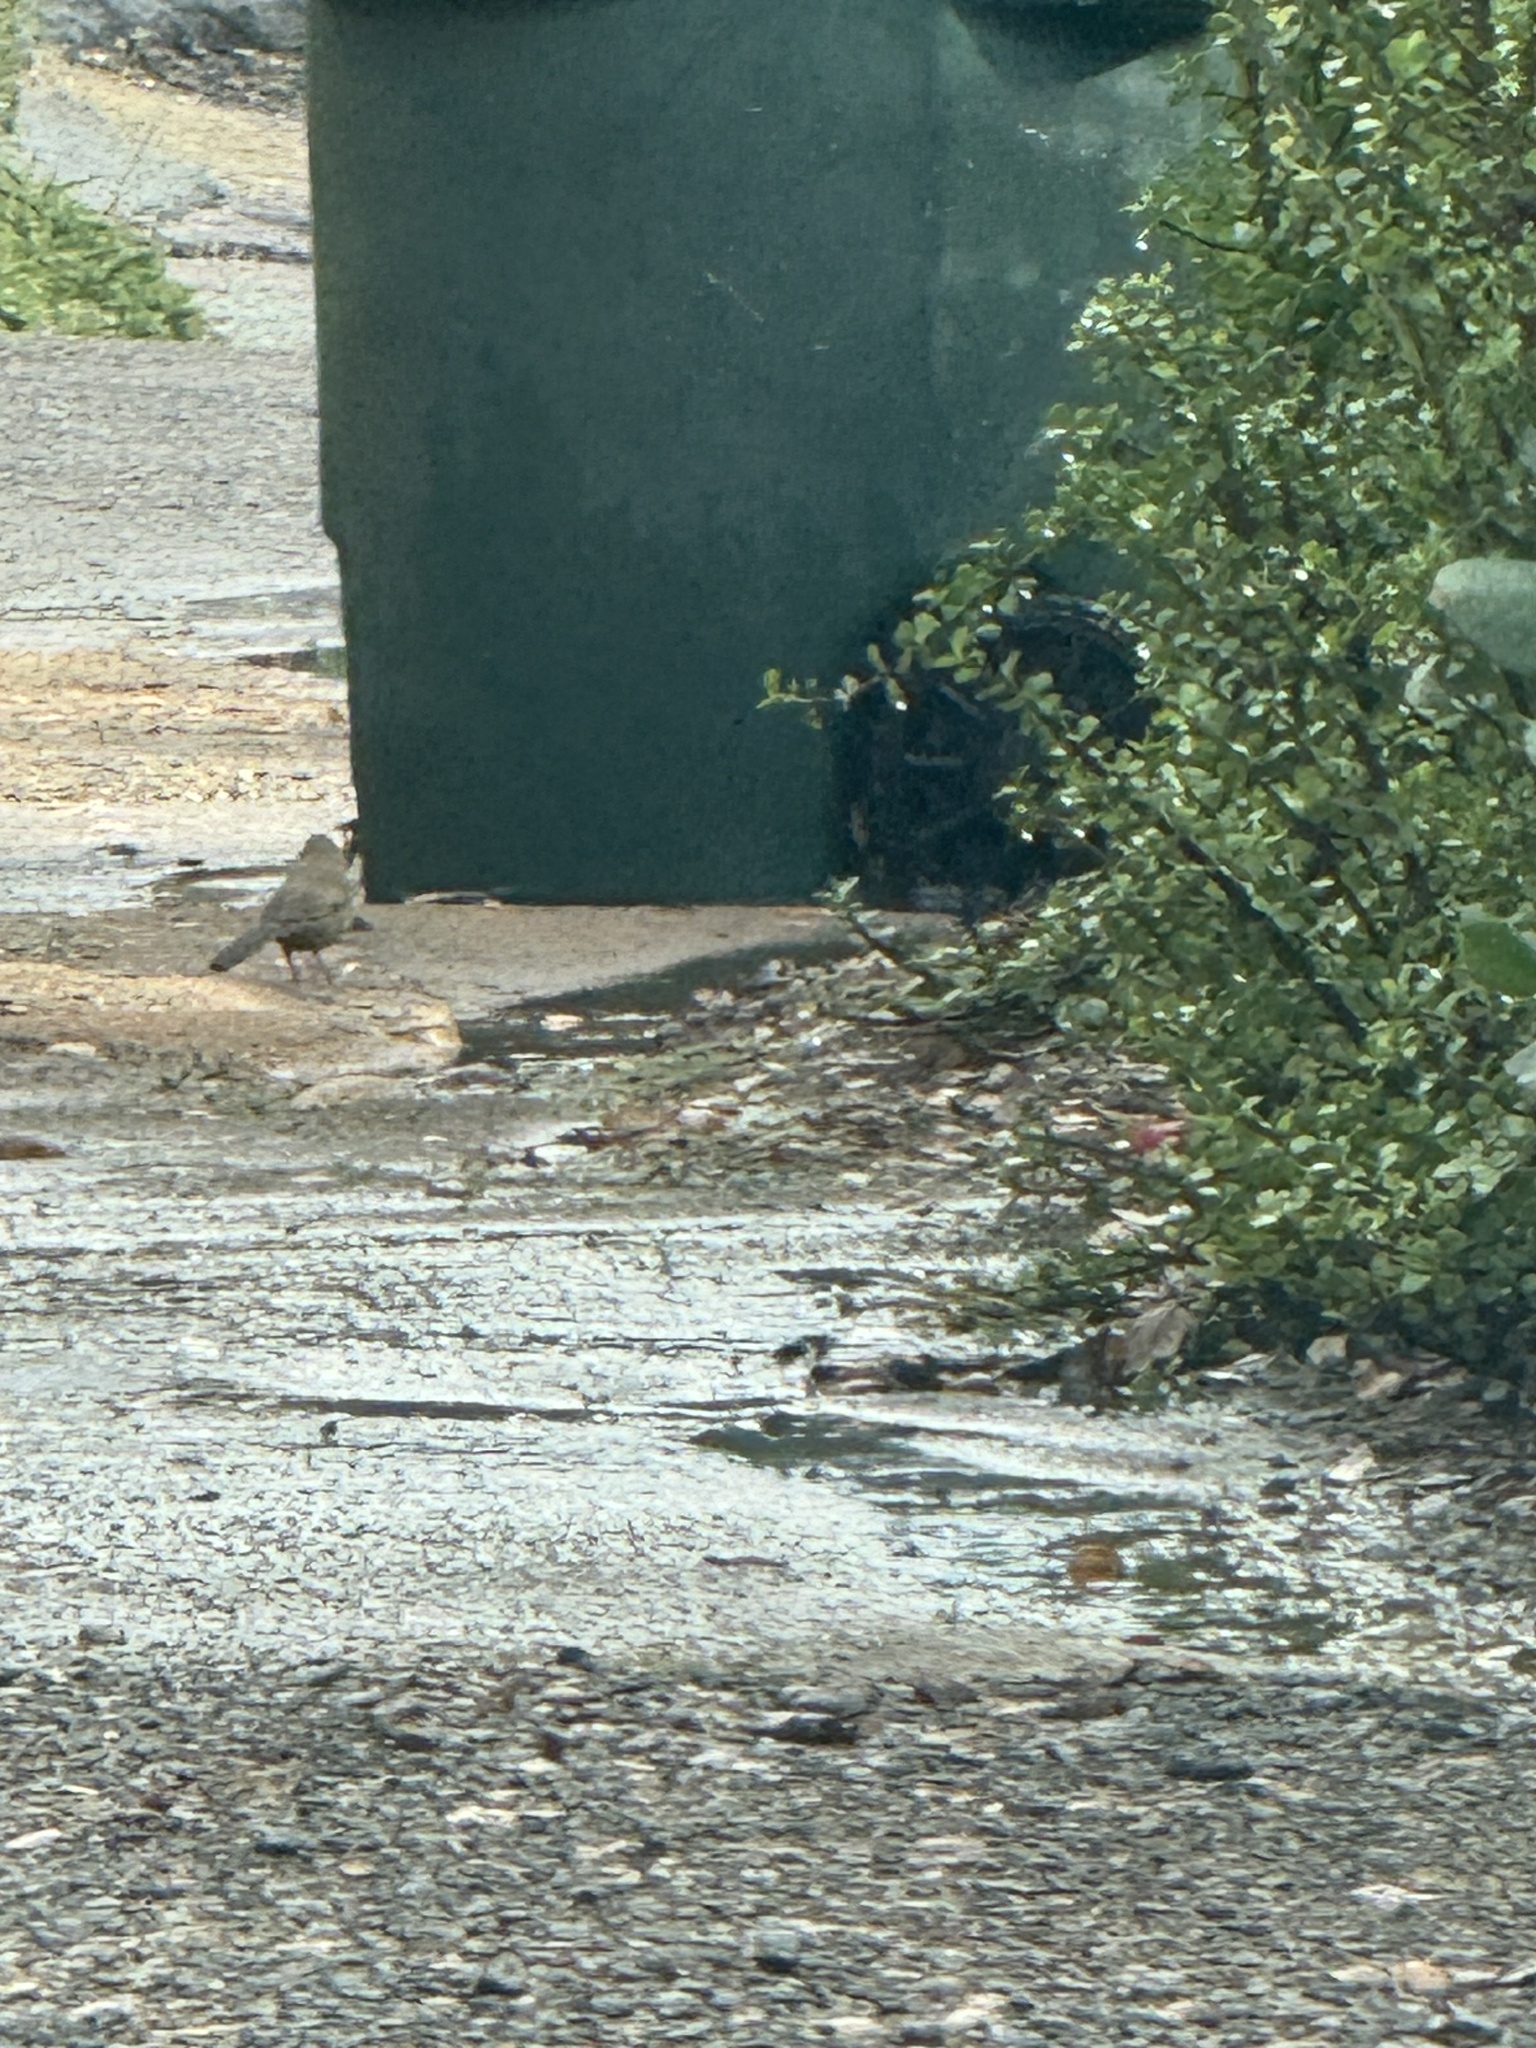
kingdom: Animalia
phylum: Chordata
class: Aves
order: Passeriformes
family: Passerellidae
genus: Melozone
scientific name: Melozone crissalis
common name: California towhee
